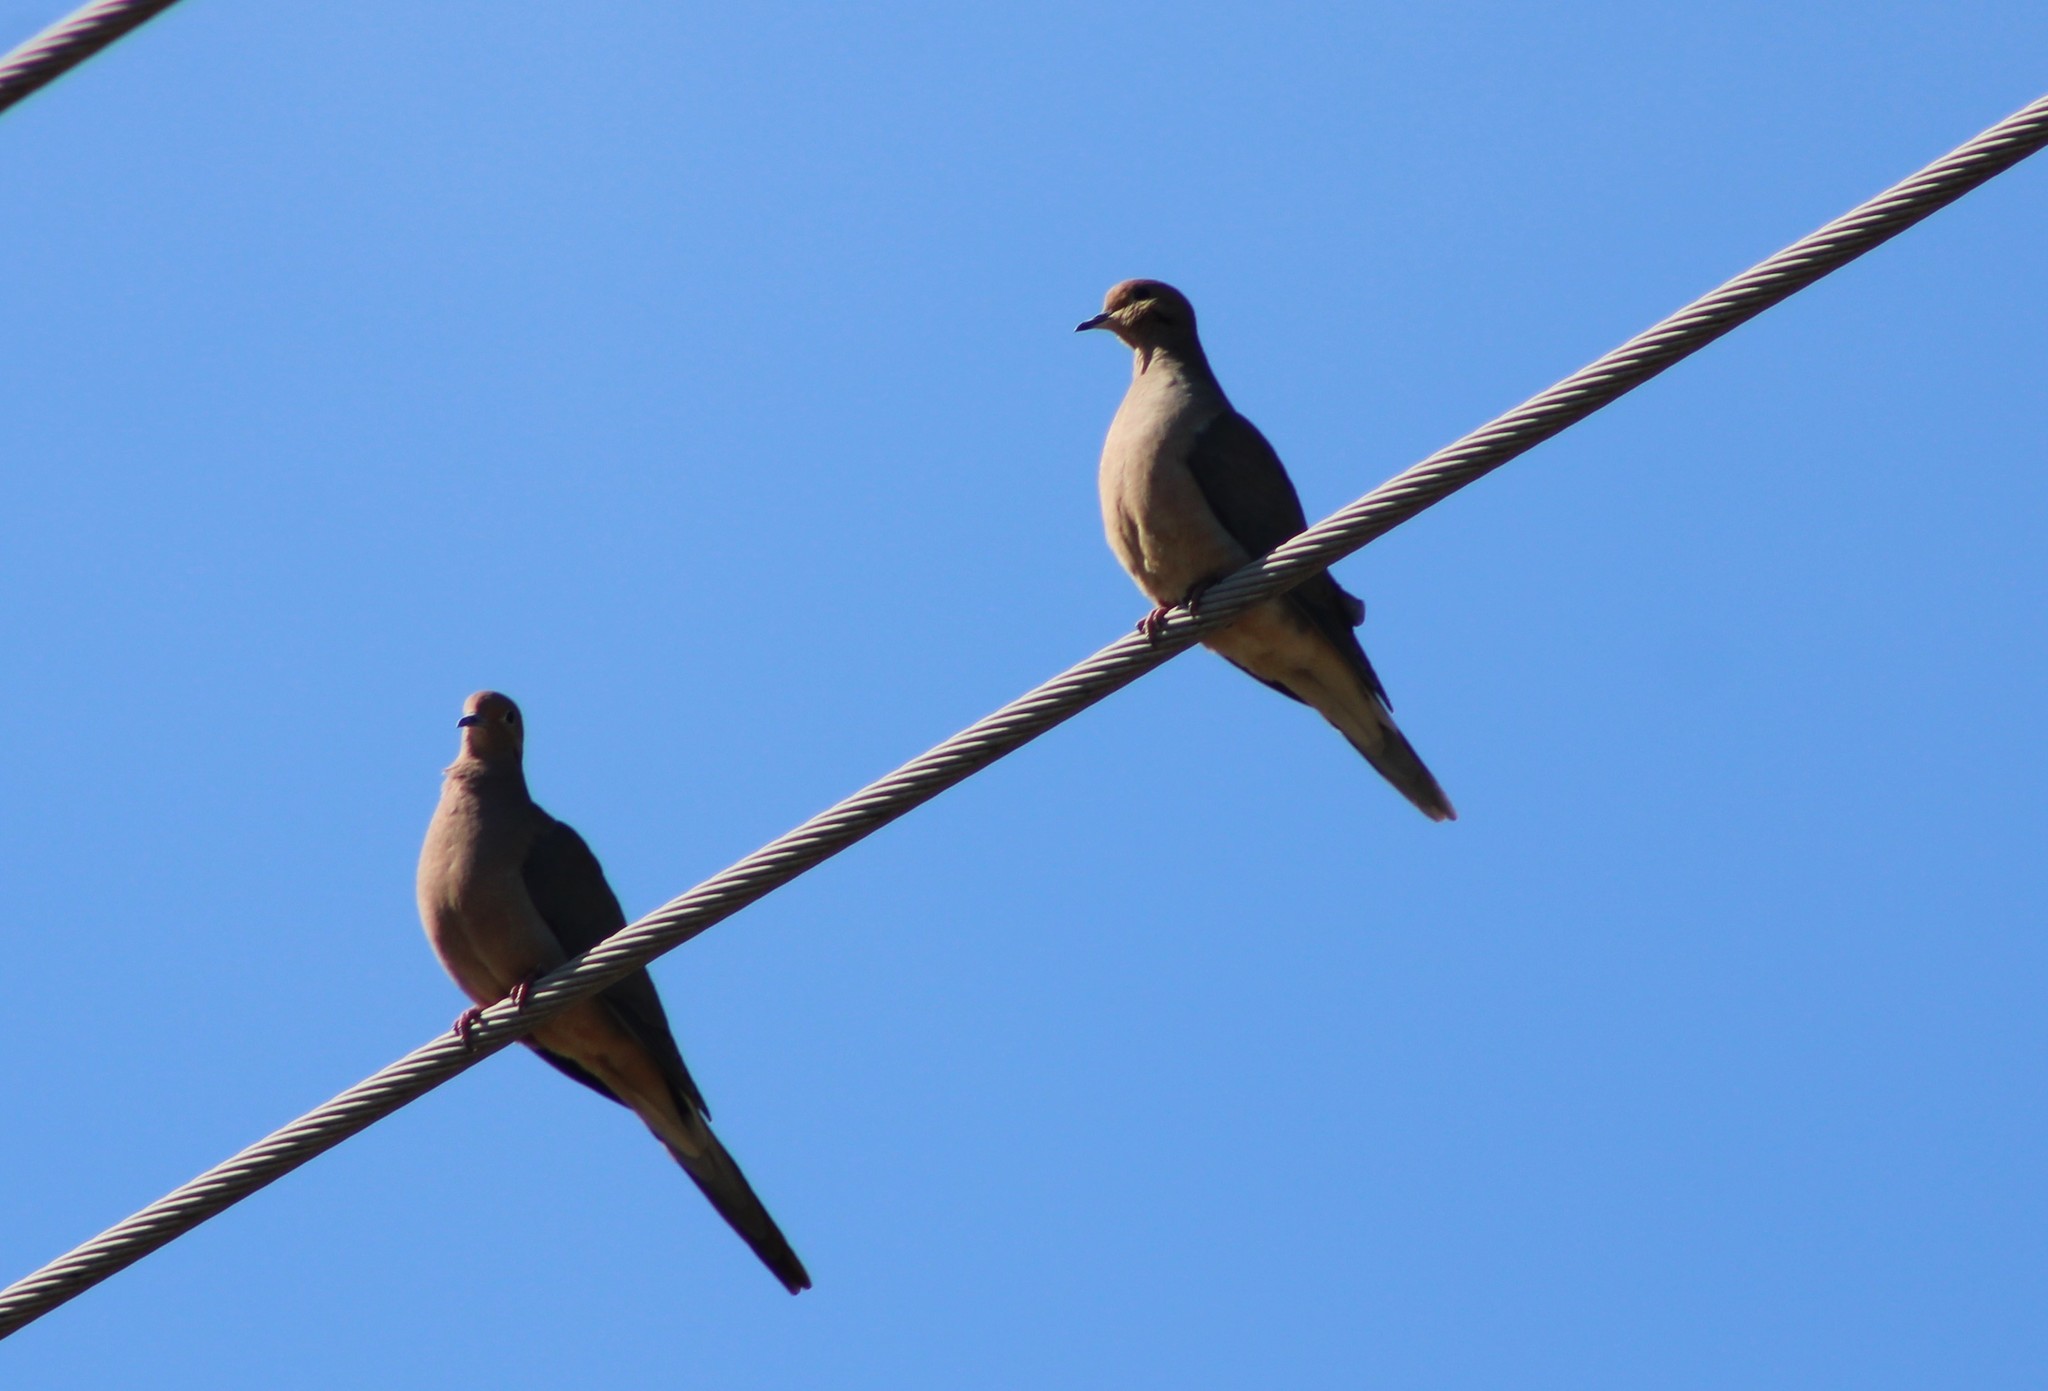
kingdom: Animalia
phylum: Chordata
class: Aves
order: Columbiformes
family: Columbidae
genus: Zenaida
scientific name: Zenaida macroura
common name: Mourning dove
